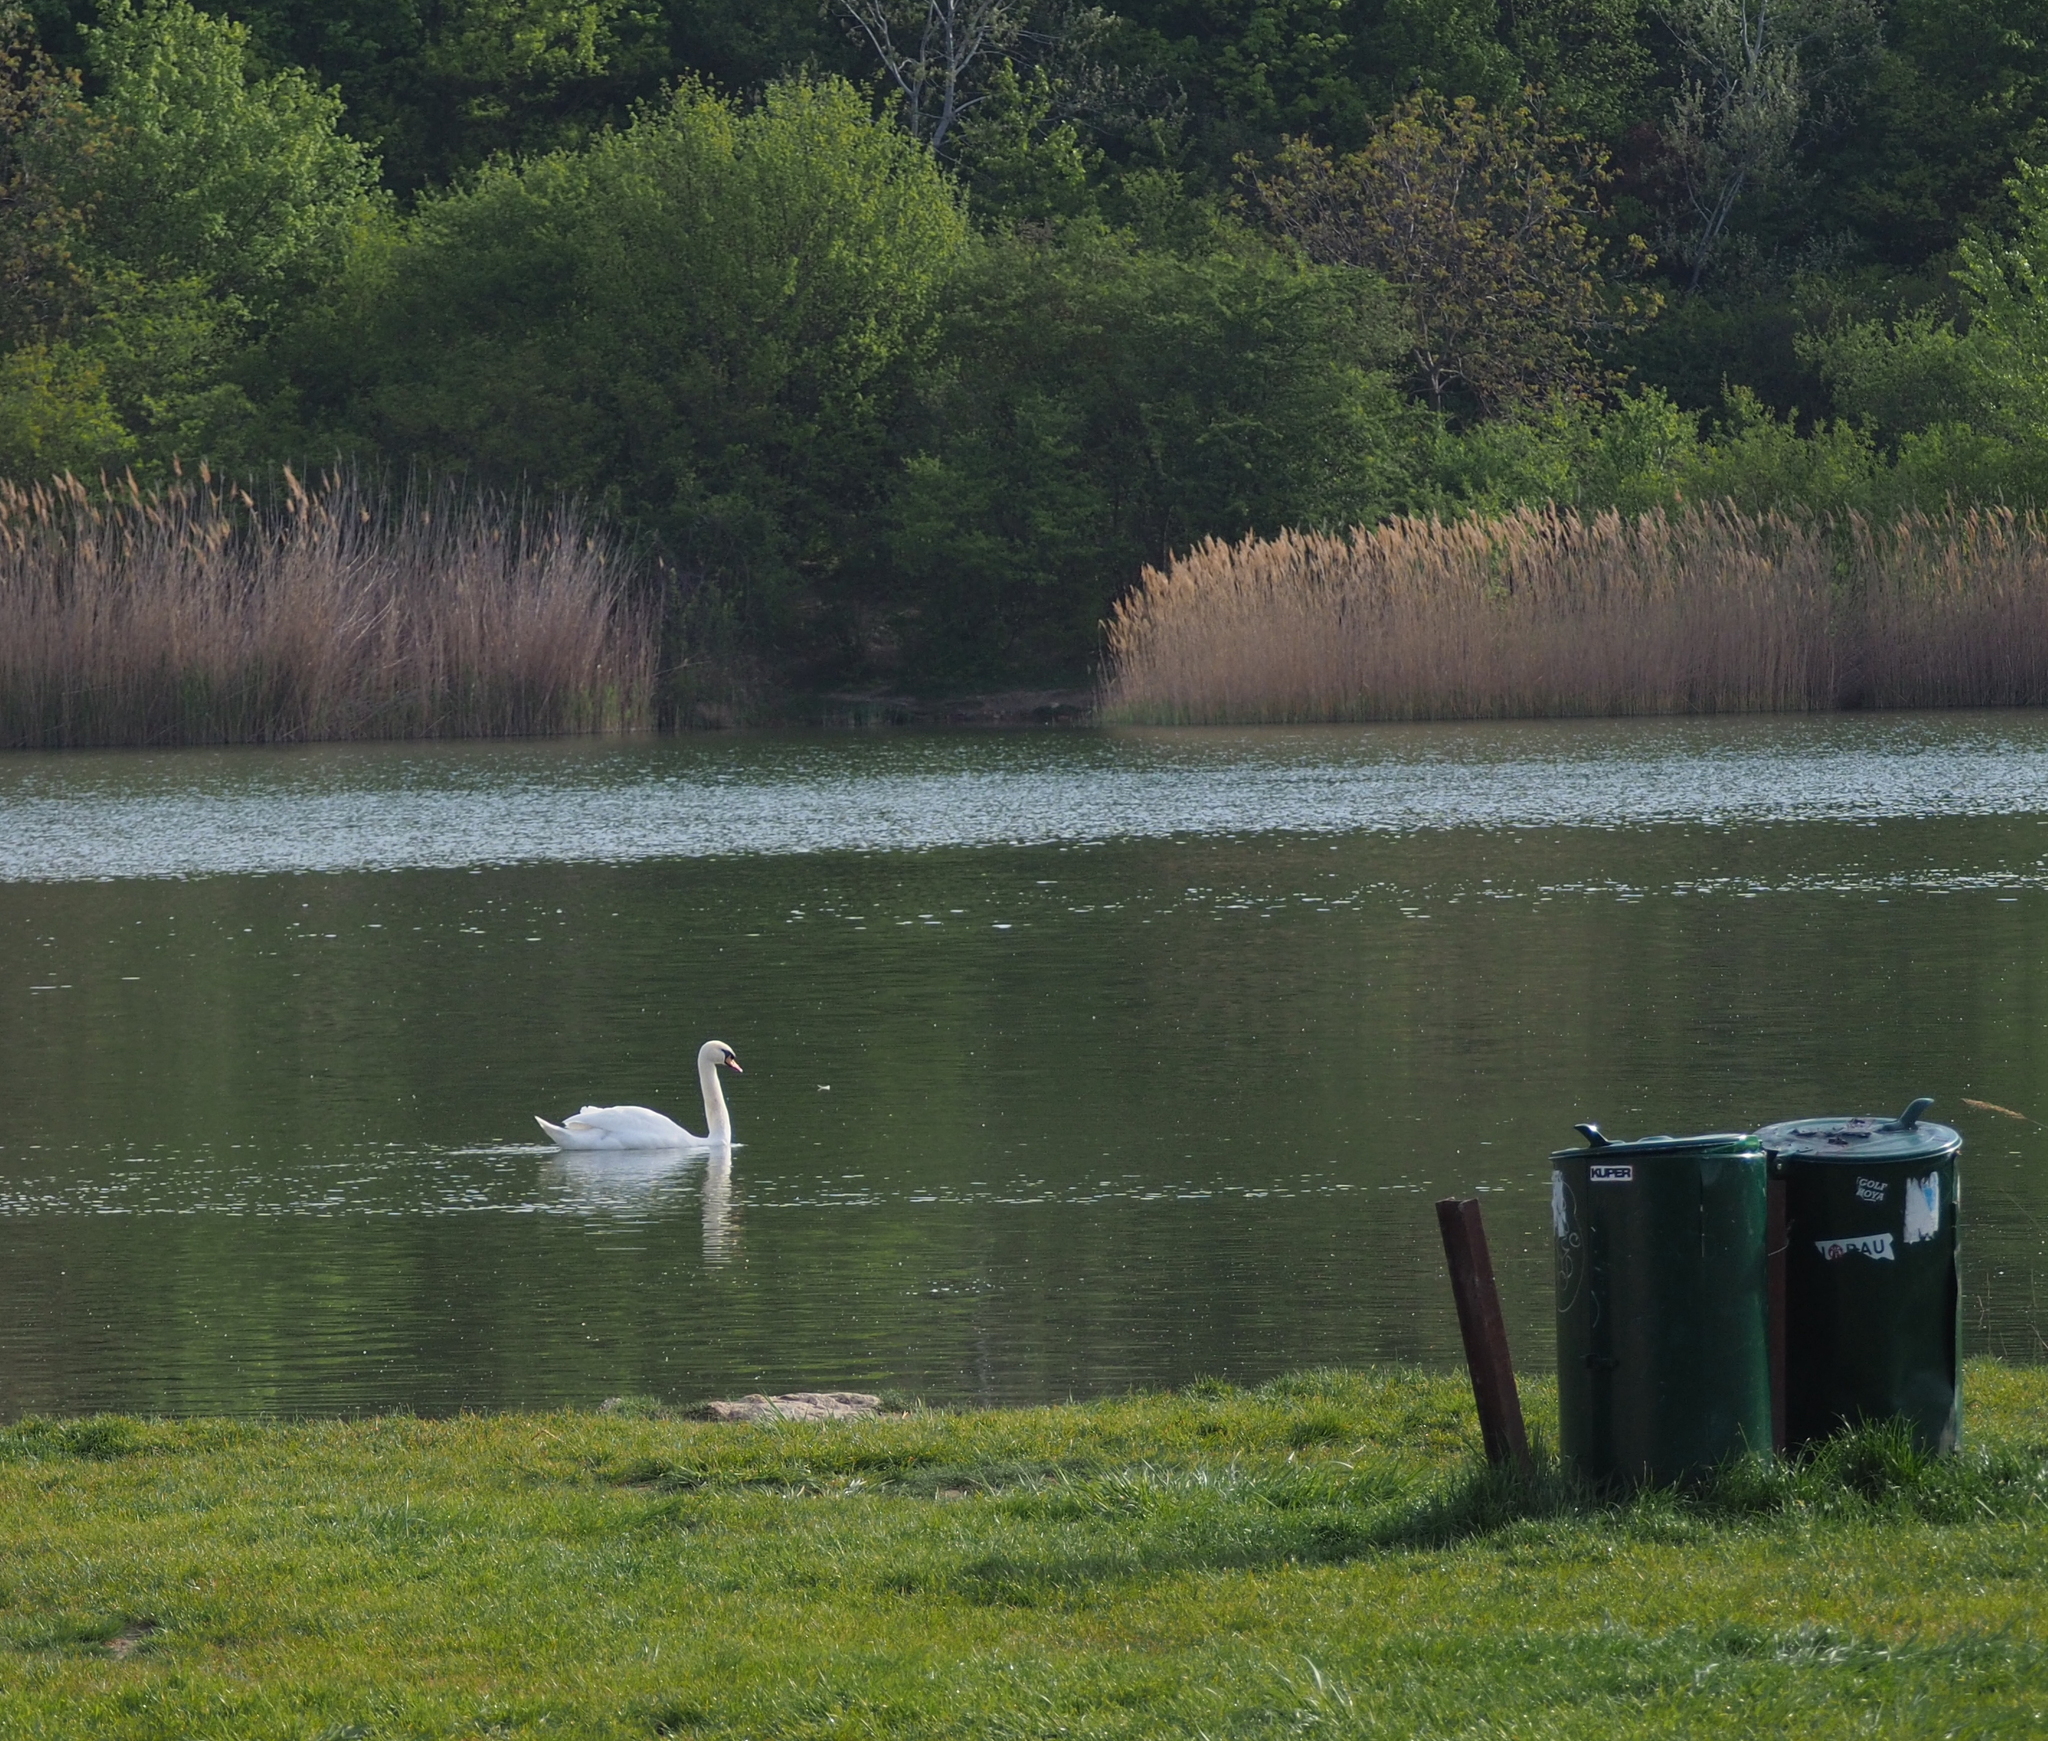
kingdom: Animalia
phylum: Chordata
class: Aves
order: Anseriformes
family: Anatidae
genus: Cygnus
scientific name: Cygnus olor
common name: Mute swan
